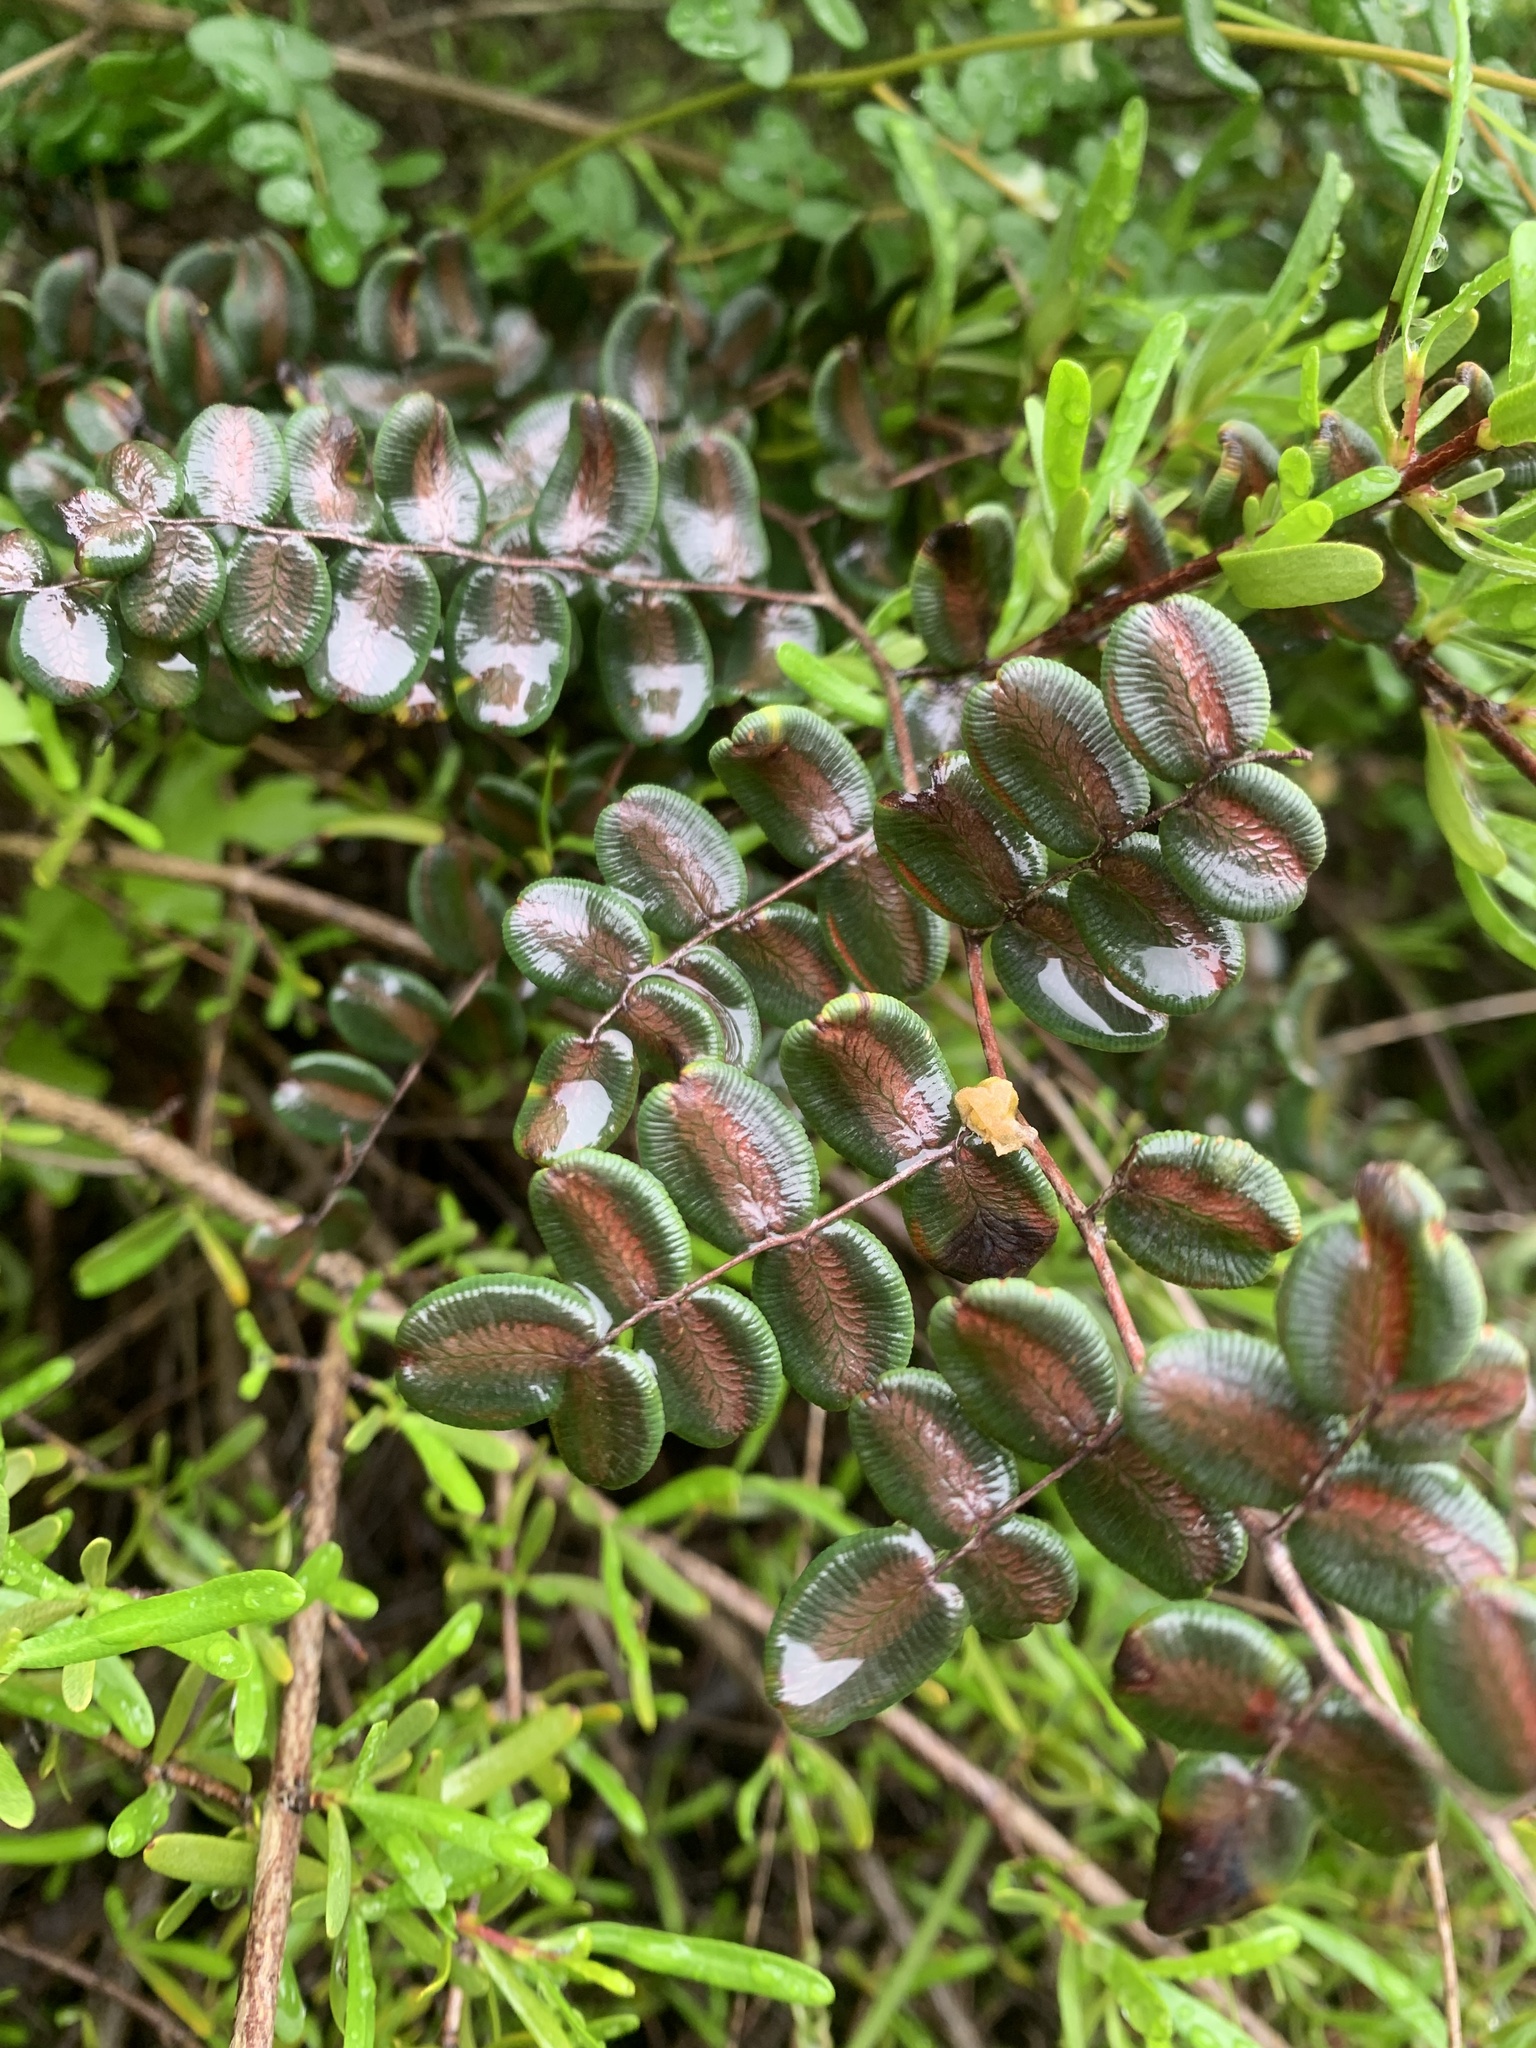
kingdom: Plantae
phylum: Tracheophyta
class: Polypodiopsida
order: Polypodiales
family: Pteridaceae
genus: Pellaea
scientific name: Pellaea andromedifolia
